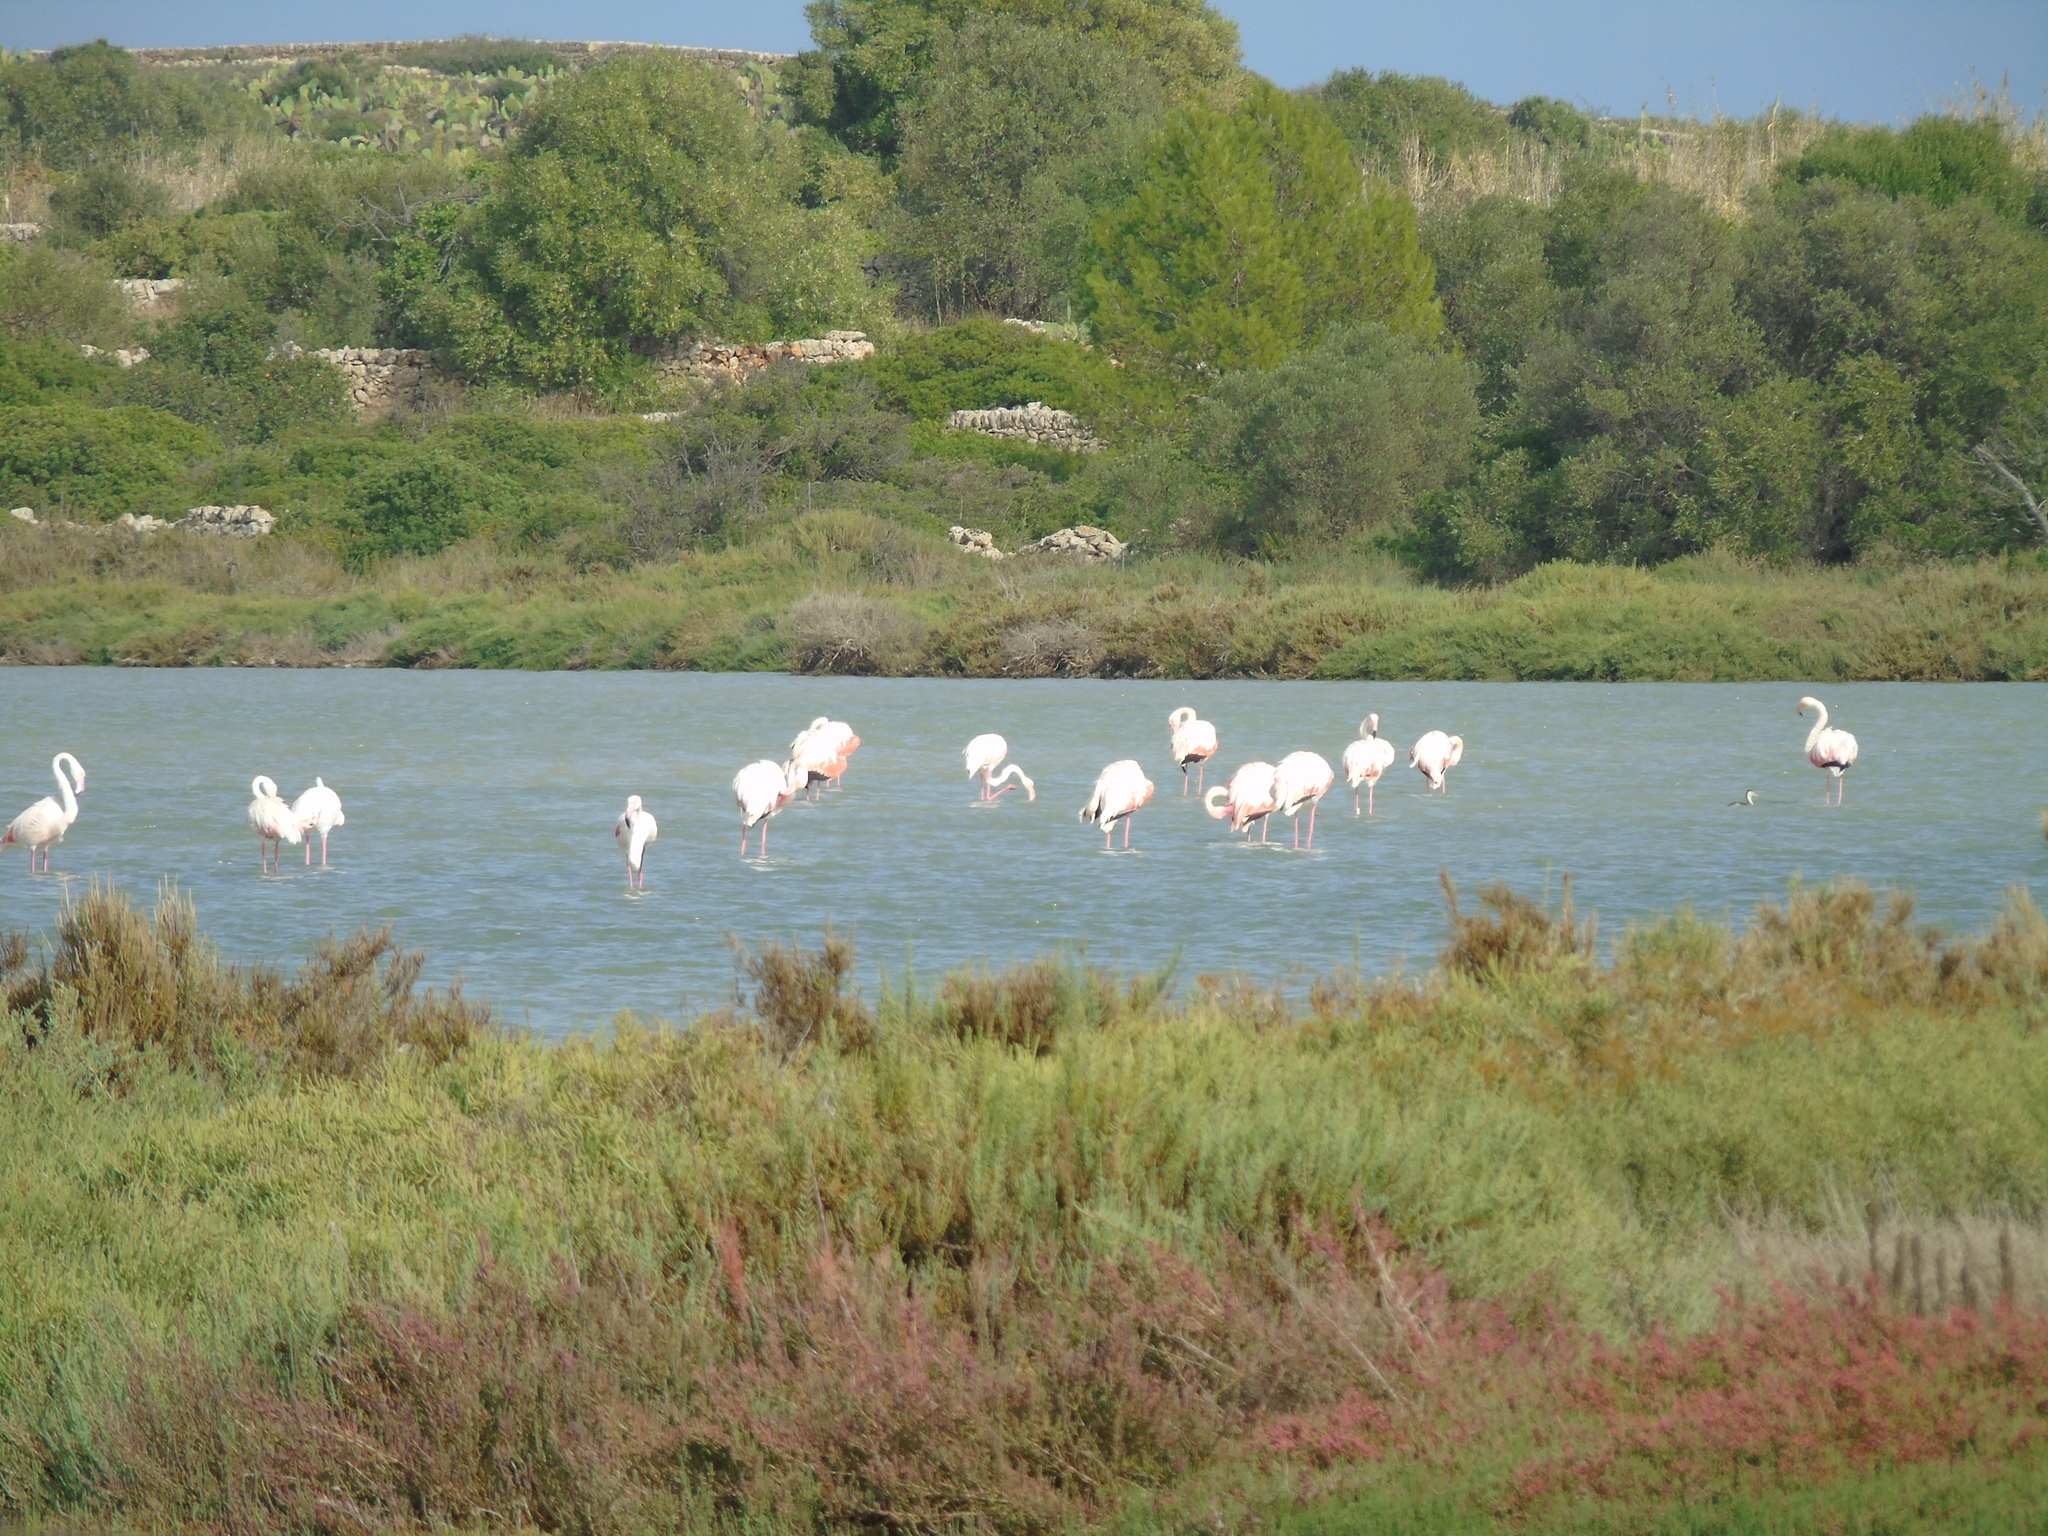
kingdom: Animalia
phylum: Chordata
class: Aves
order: Phoenicopteriformes
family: Phoenicopteridae
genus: Phoenicopterus
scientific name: Phoenicopterus roseus
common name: Greater flamingo
